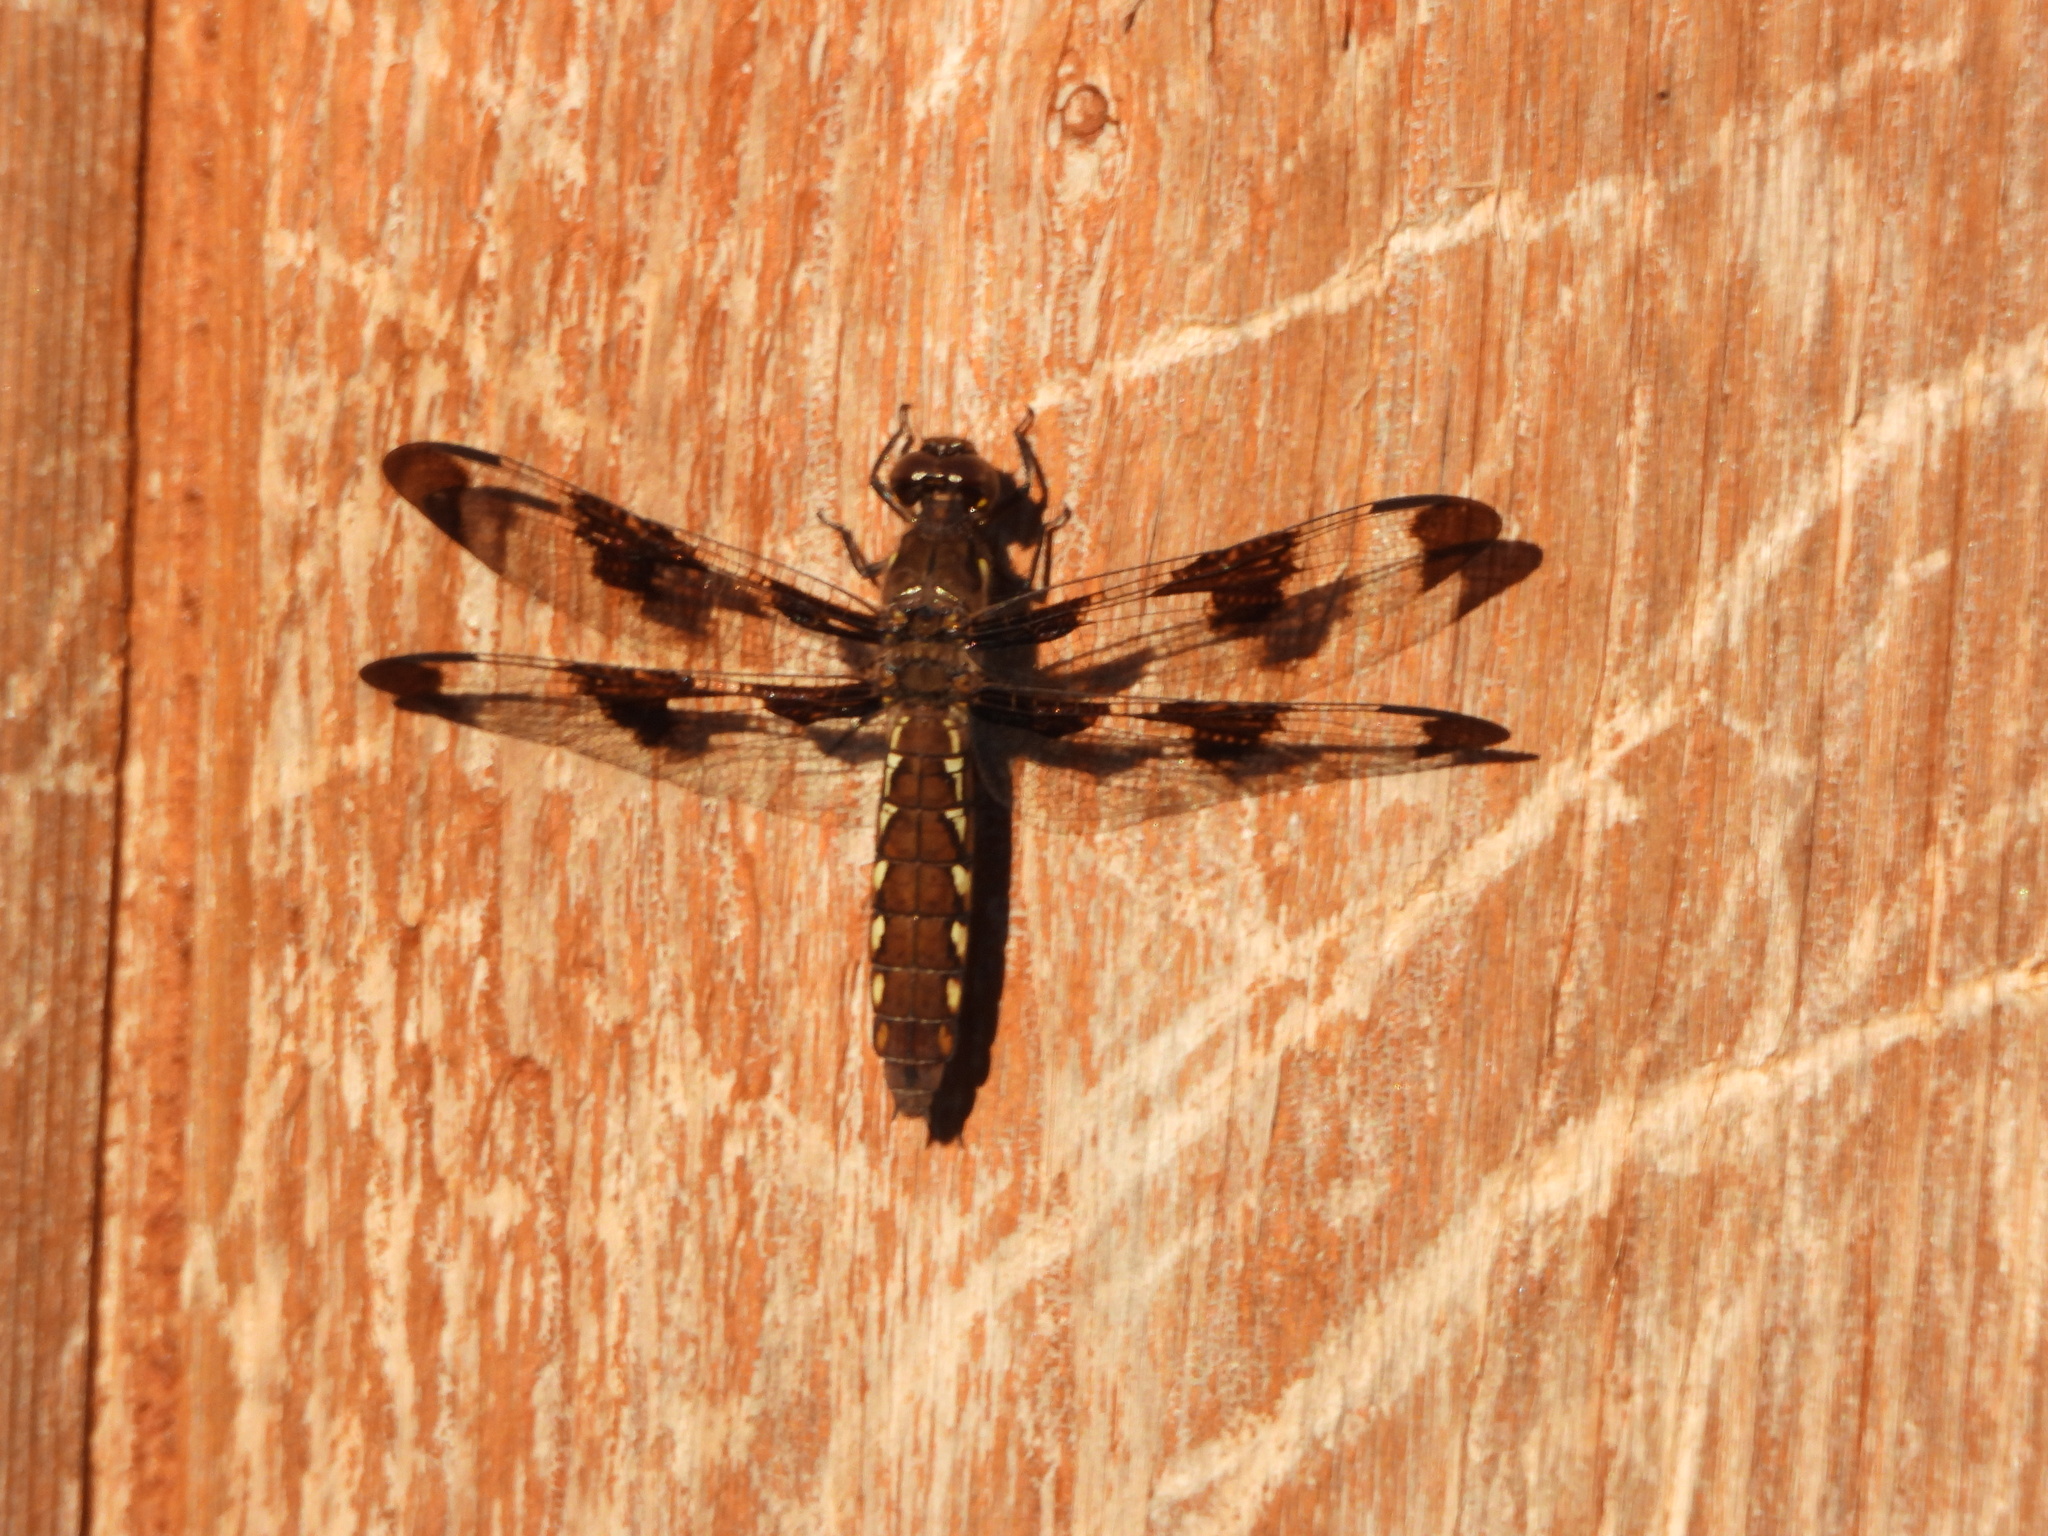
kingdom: Animalia
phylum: Arthropoda
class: Insecta
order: Odonata
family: Libellulidae
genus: Plathemis
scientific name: Plathemis lydia
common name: Common whitetail
